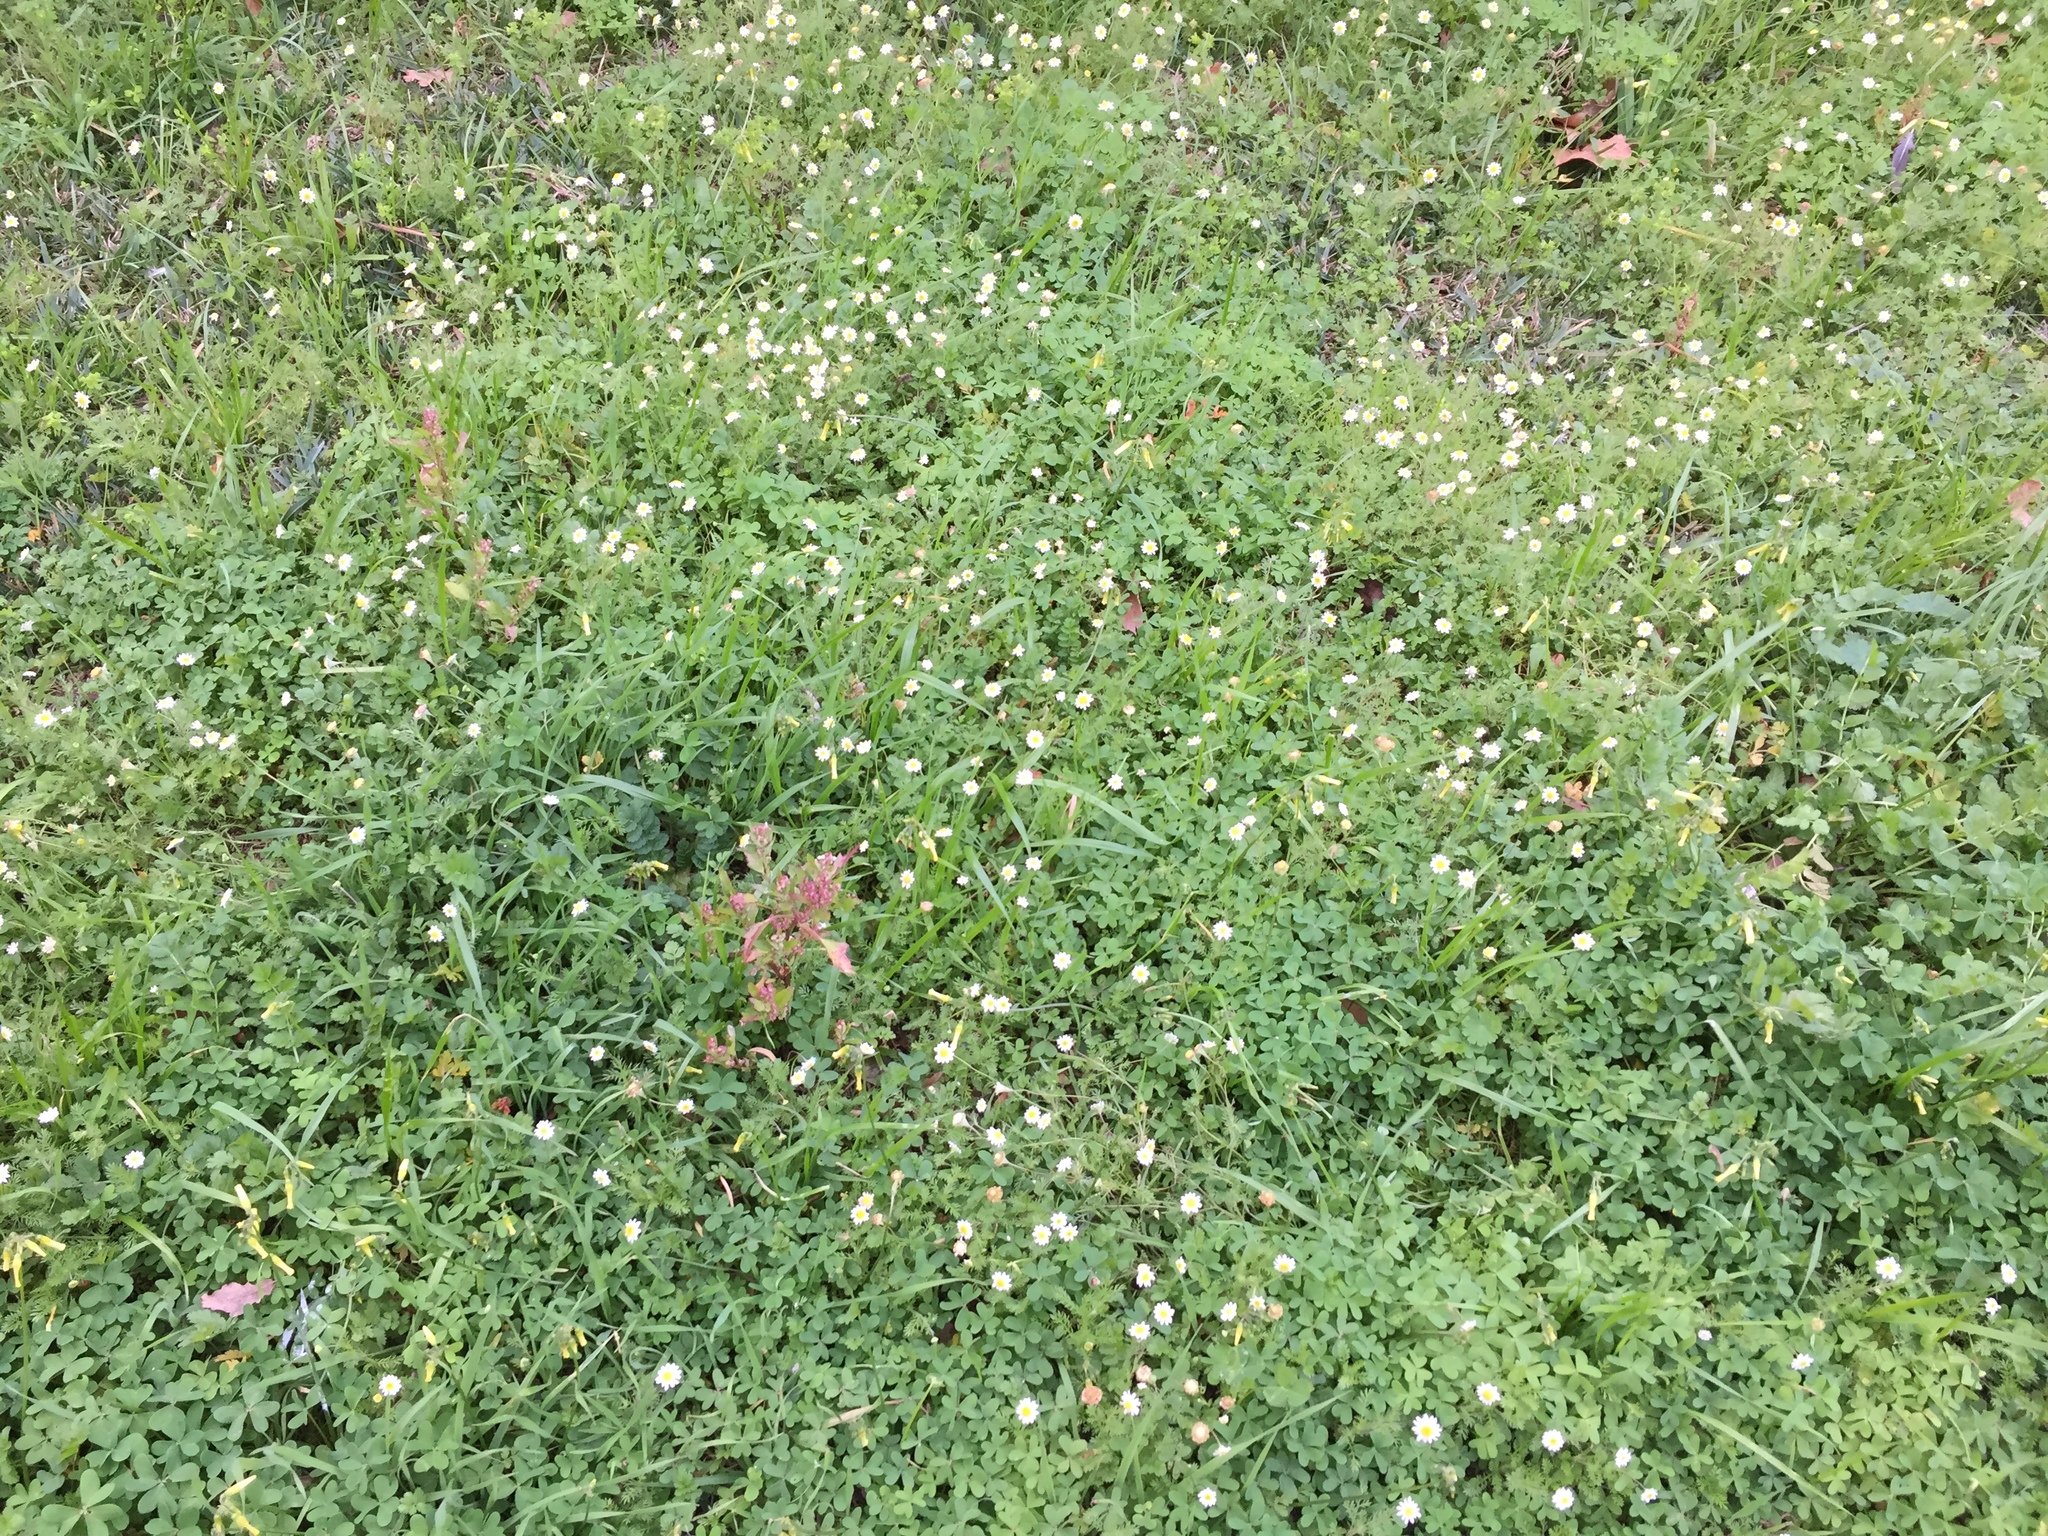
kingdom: Plantae
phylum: Tracheophyta
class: Magnoliopsida
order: Asterales
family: Asteraceae
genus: Cotula
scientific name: Cotula turbinata
